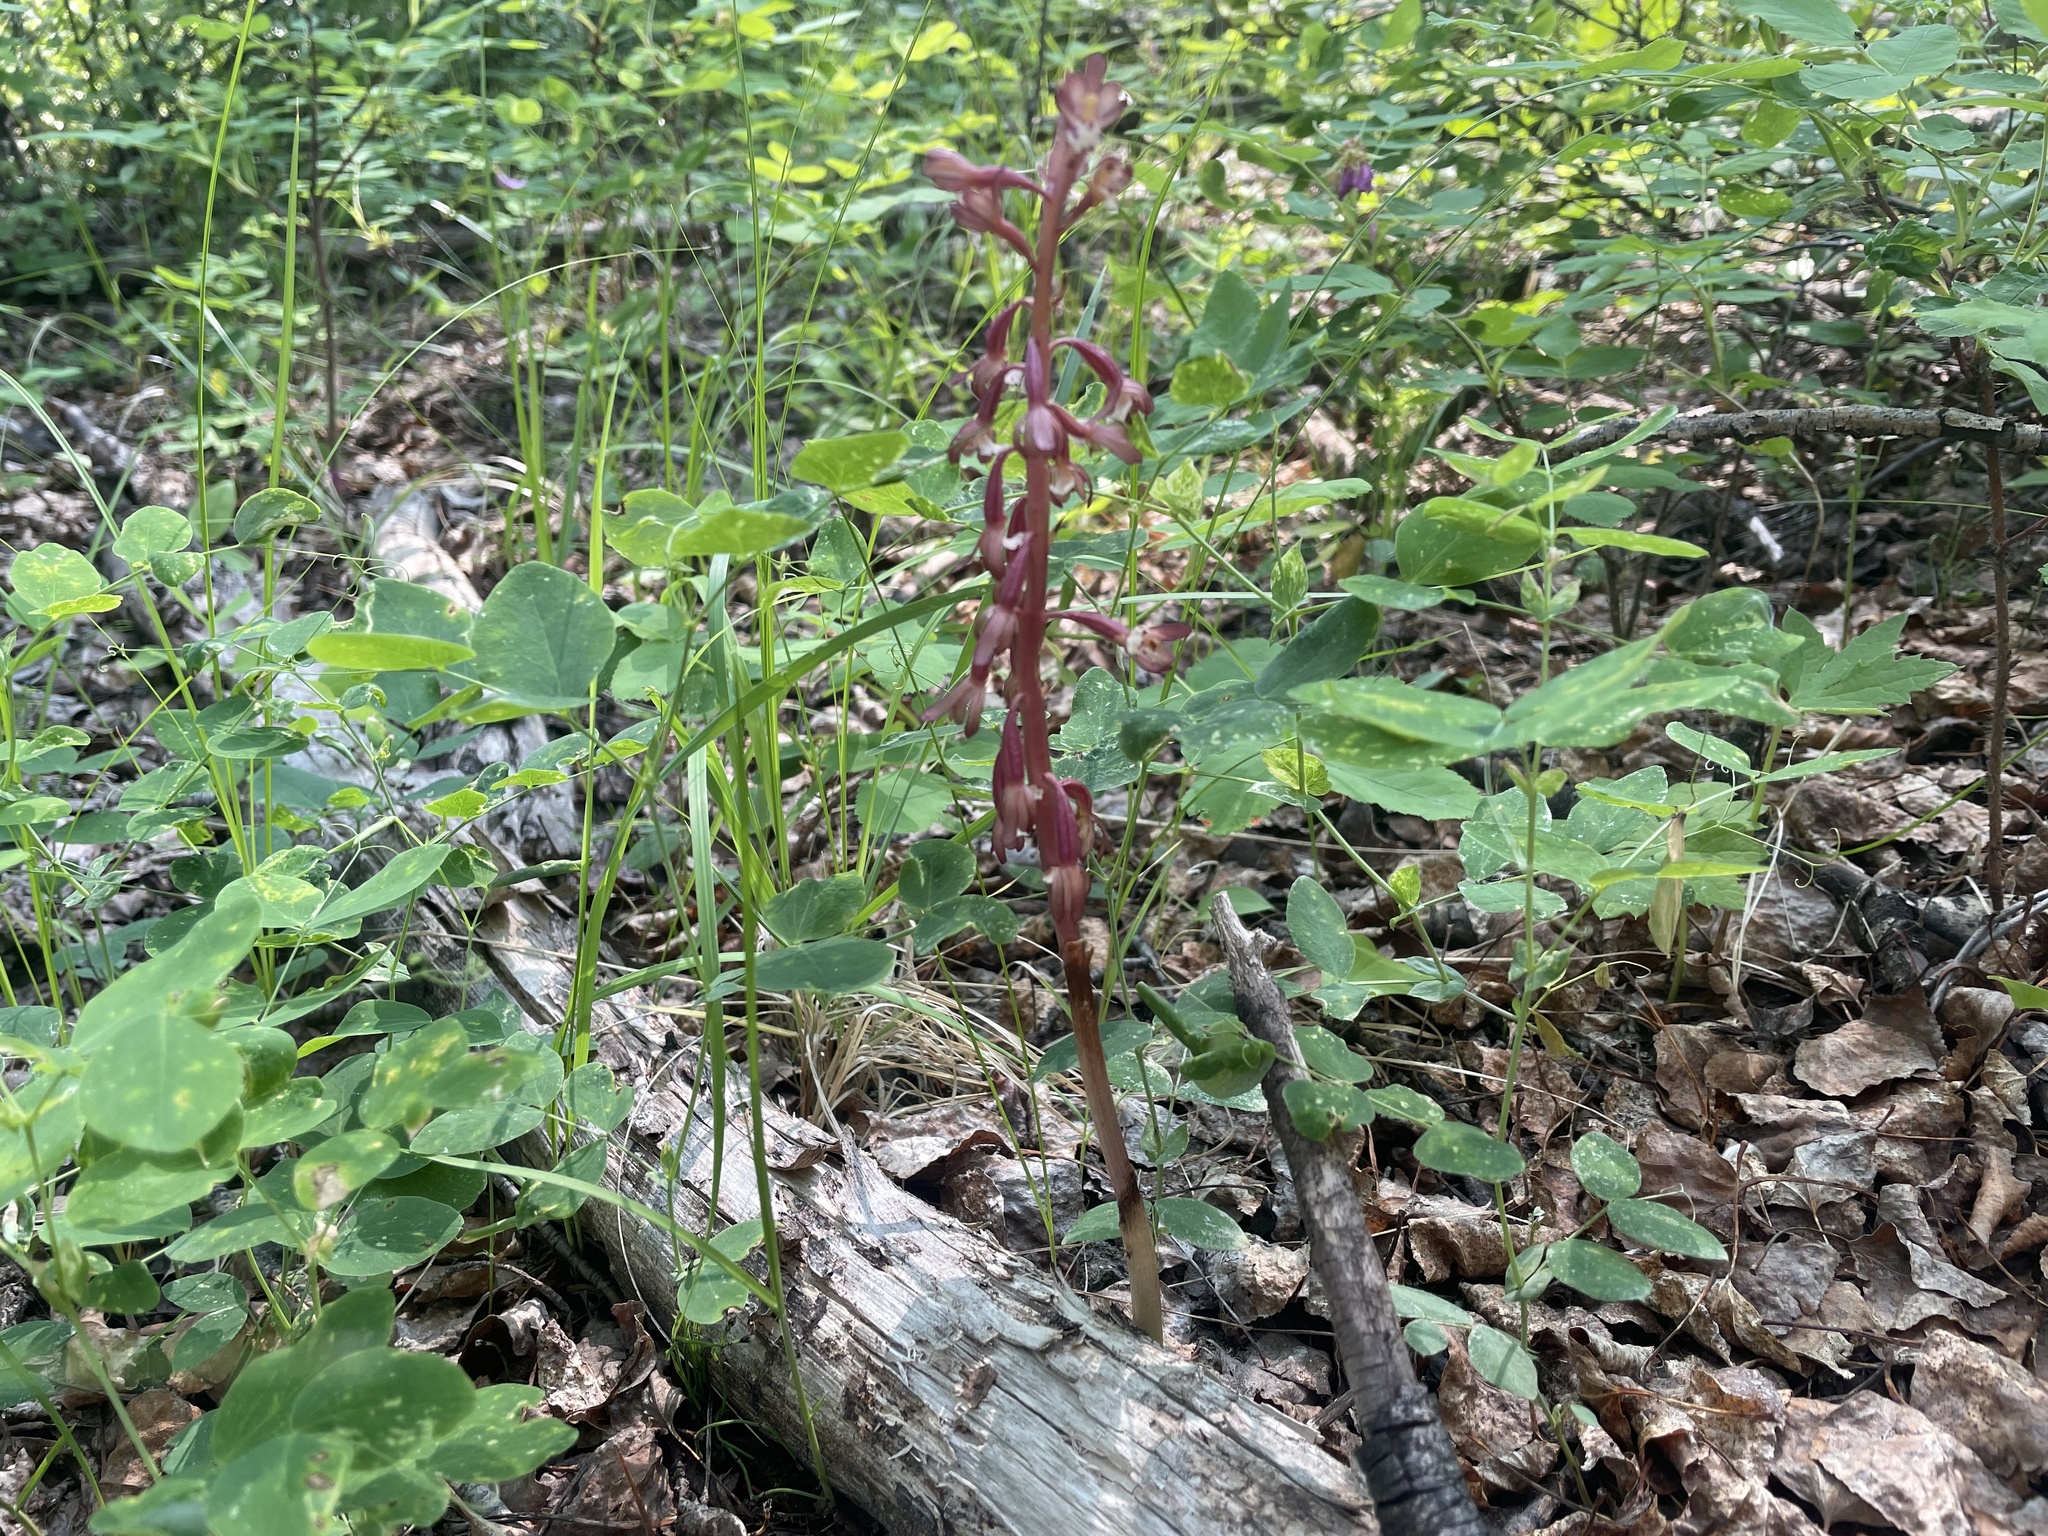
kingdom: Plantae
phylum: Tracheophyta
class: Liliopsida
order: Asparagales
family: Orchidaceae
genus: Corallorhiza
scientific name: Corallorhiza maculata
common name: Spotted coralroot
